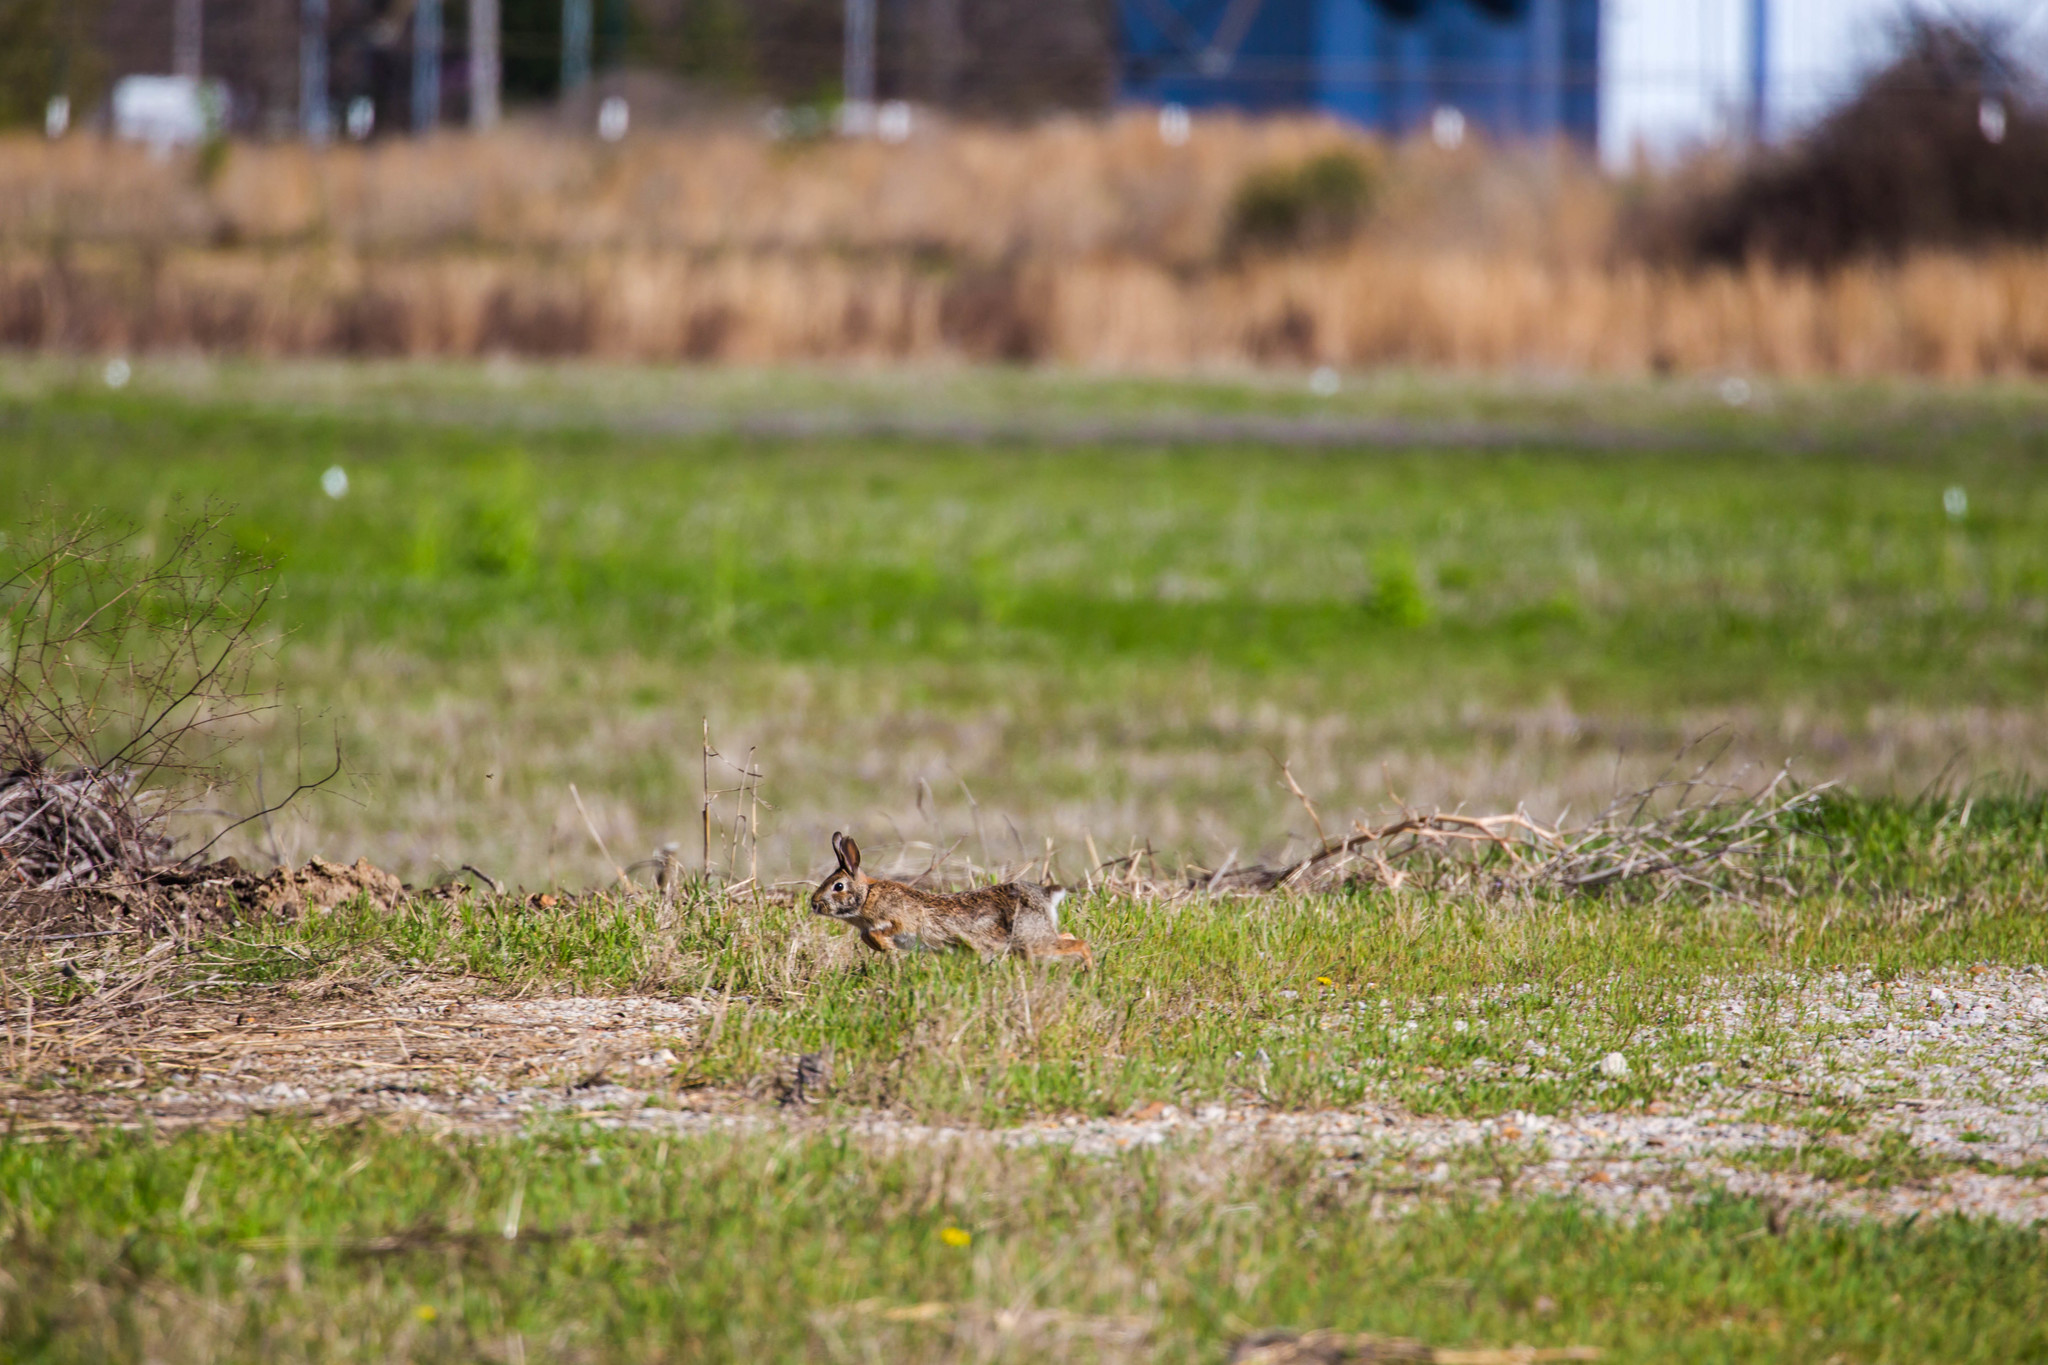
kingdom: Animalia
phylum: Chordata
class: Mammalia
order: Lagomorpha
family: Leporidae
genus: Sylvilagus
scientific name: Sylvilagus floridanus
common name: Eastern cottontail
